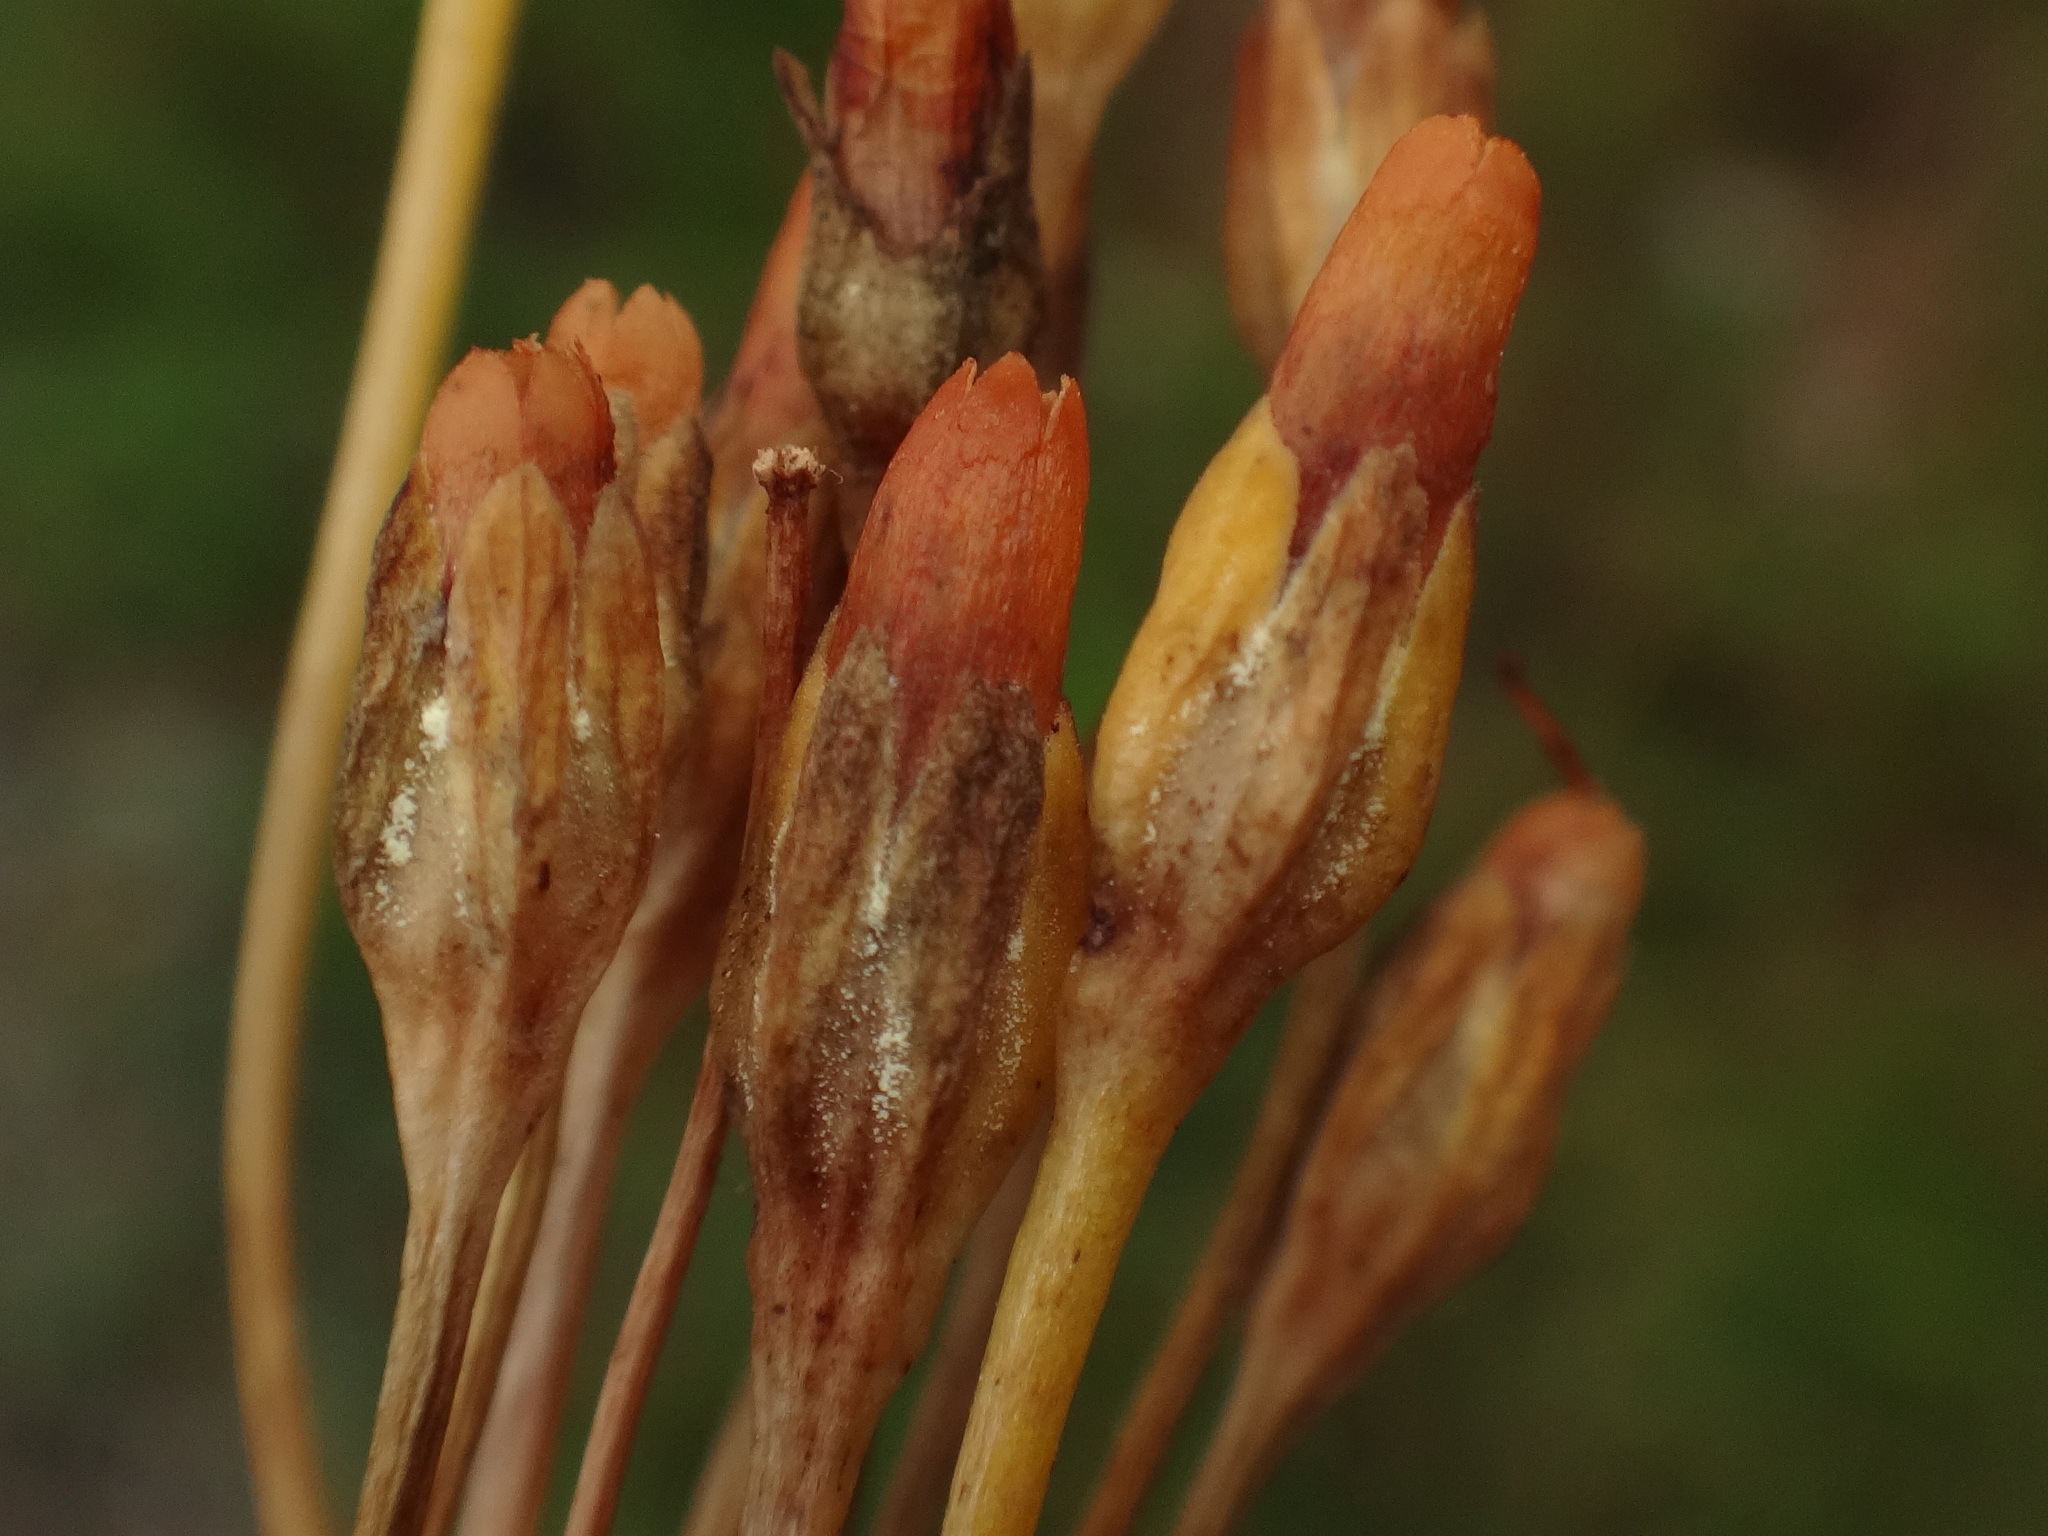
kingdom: Plantae
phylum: Tracheophyta
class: Magnoliopsida
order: Ericales
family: Primulaceae
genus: Primula
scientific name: Primula farinosa
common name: Bird's-eye primrose
